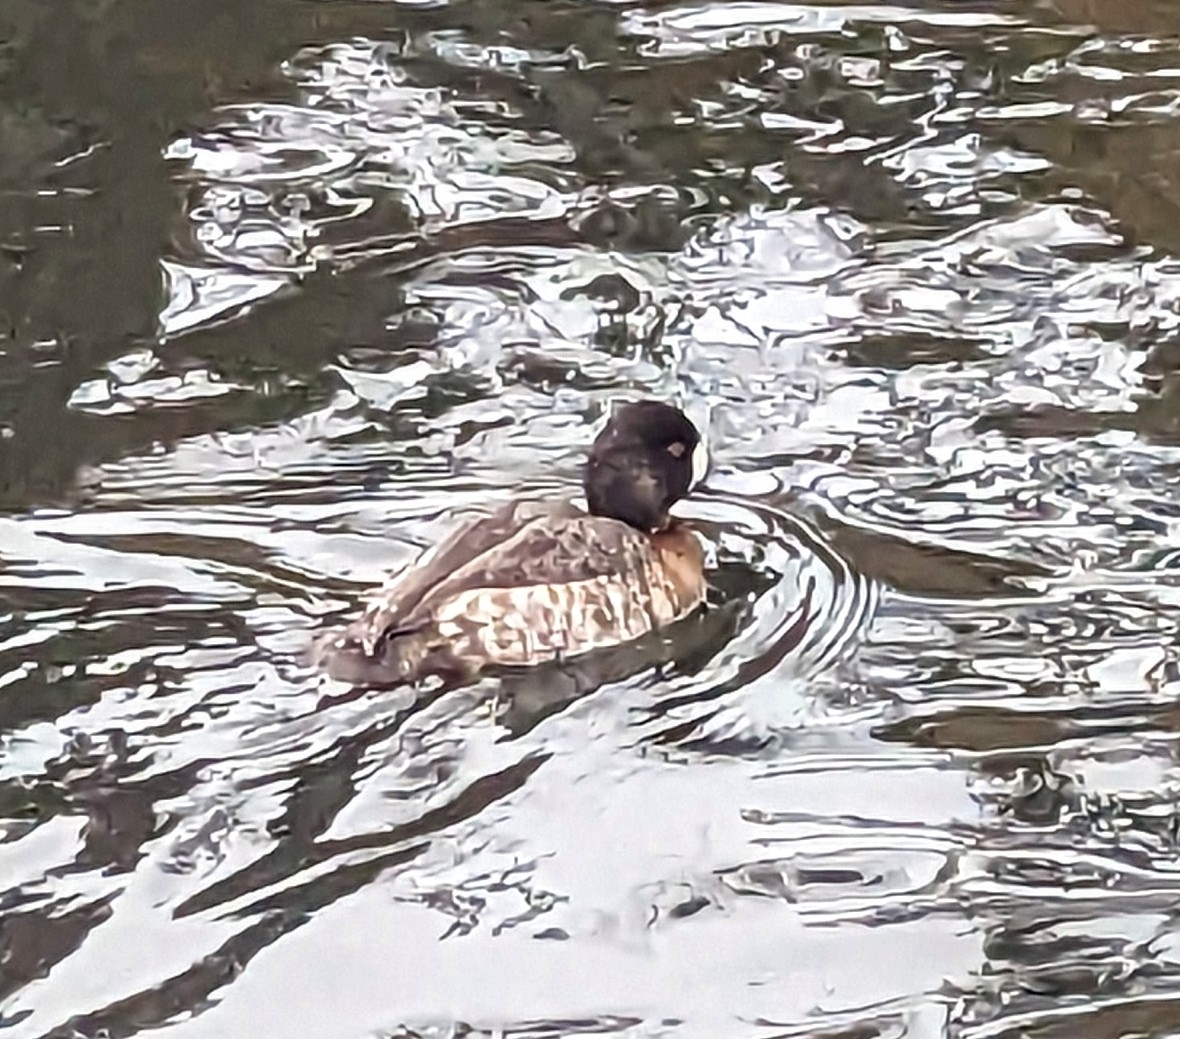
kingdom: Animalia
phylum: Chordata
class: Aves
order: Anseriformes
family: Anatidae
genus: Aythya
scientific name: Aythya affinis
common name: Lesser scaup
